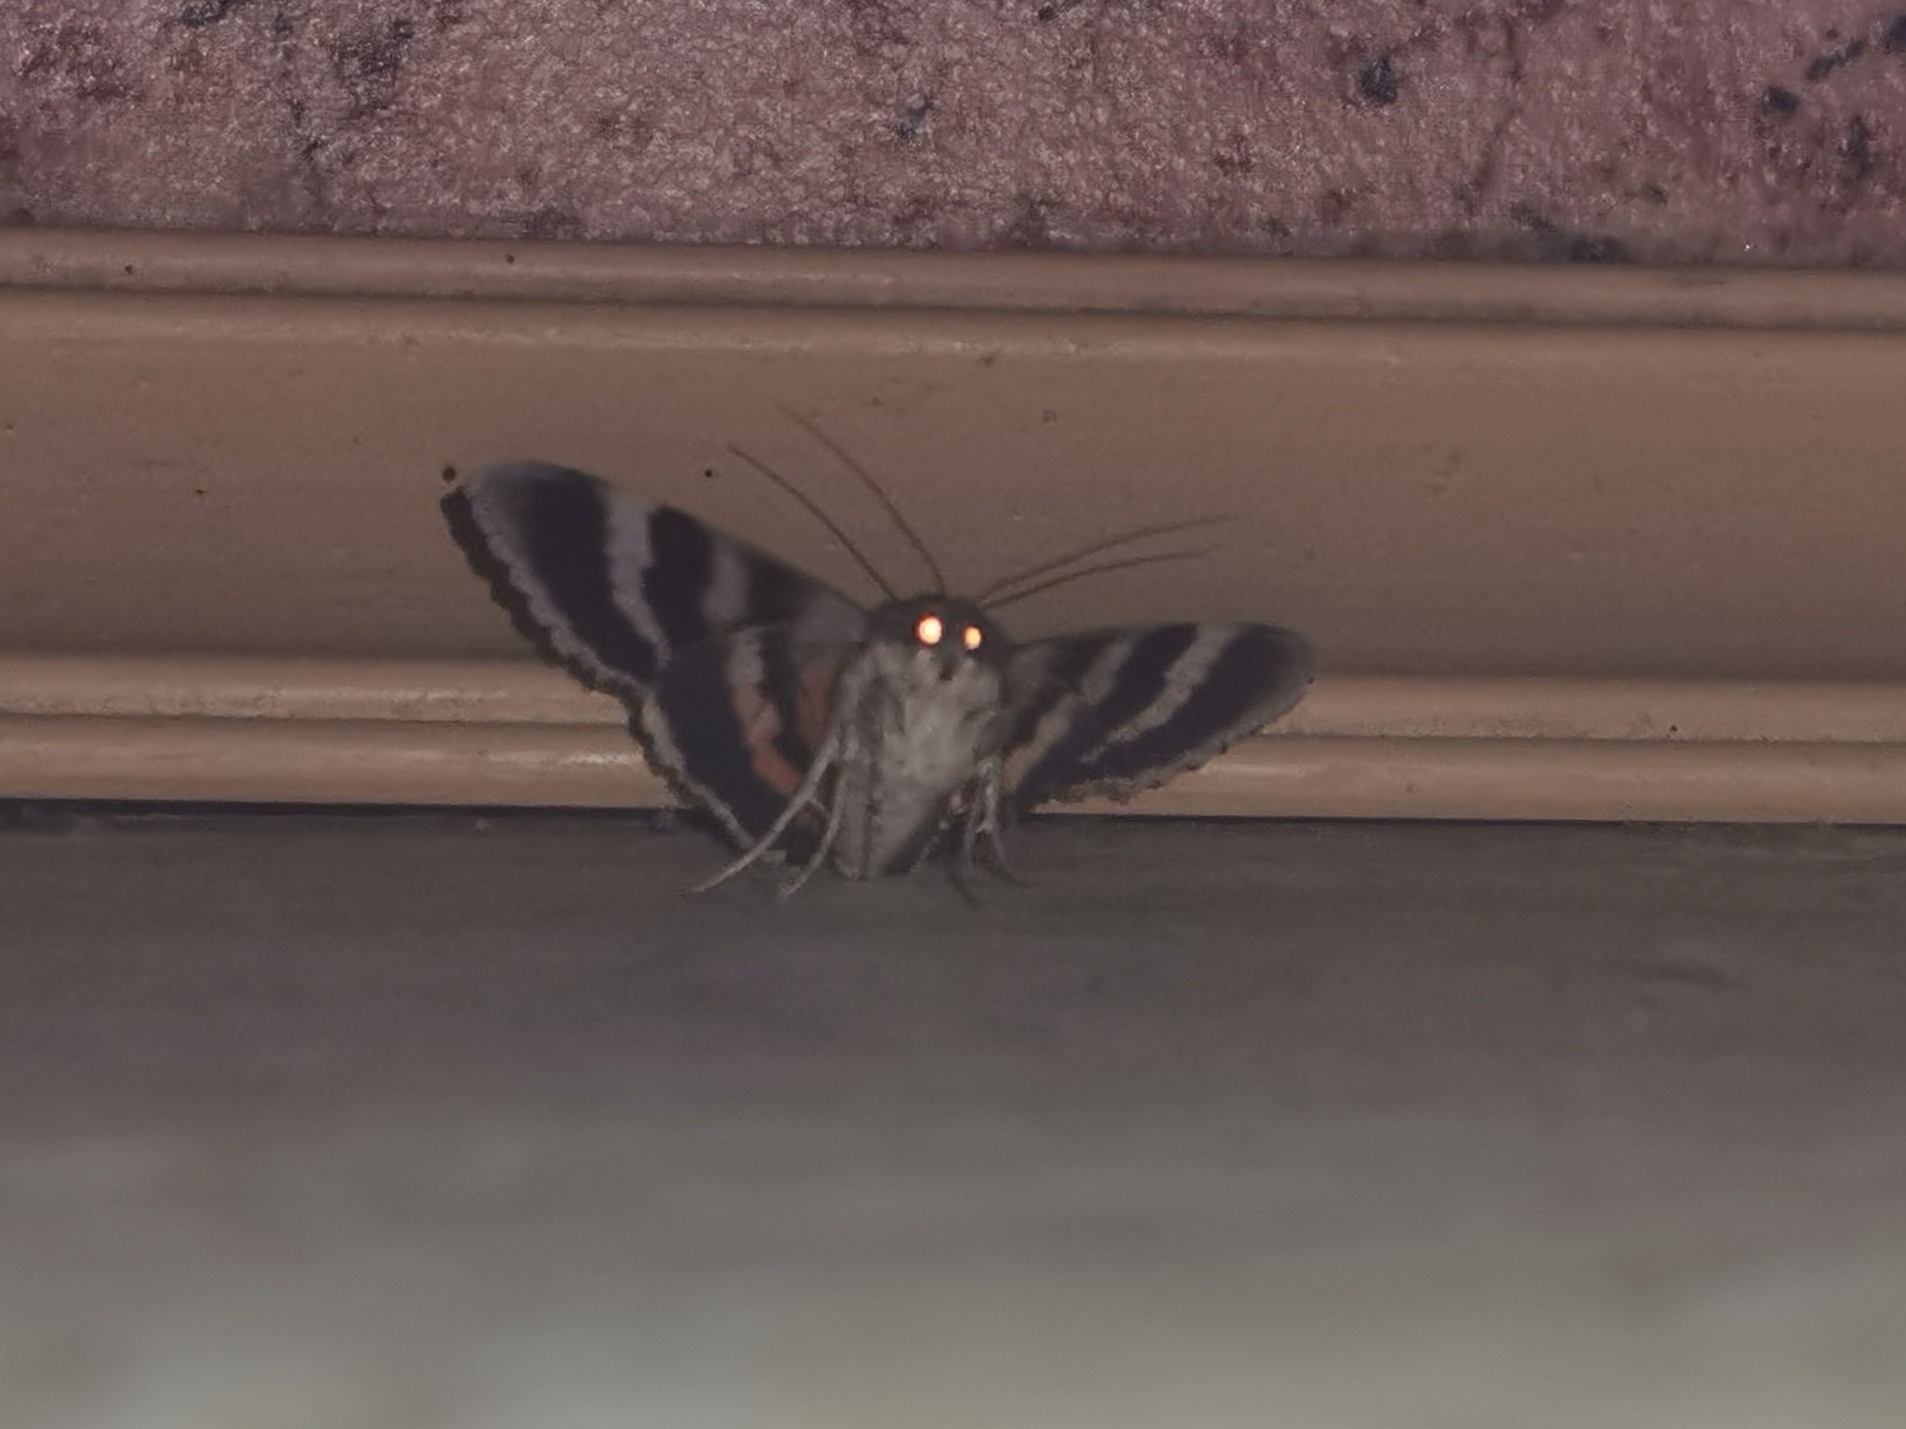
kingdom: Animalia
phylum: Arthropoda
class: Insecta
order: Lepidoptera
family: Erebidae
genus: Catocala
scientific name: Catocala nupta
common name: Red underwing
